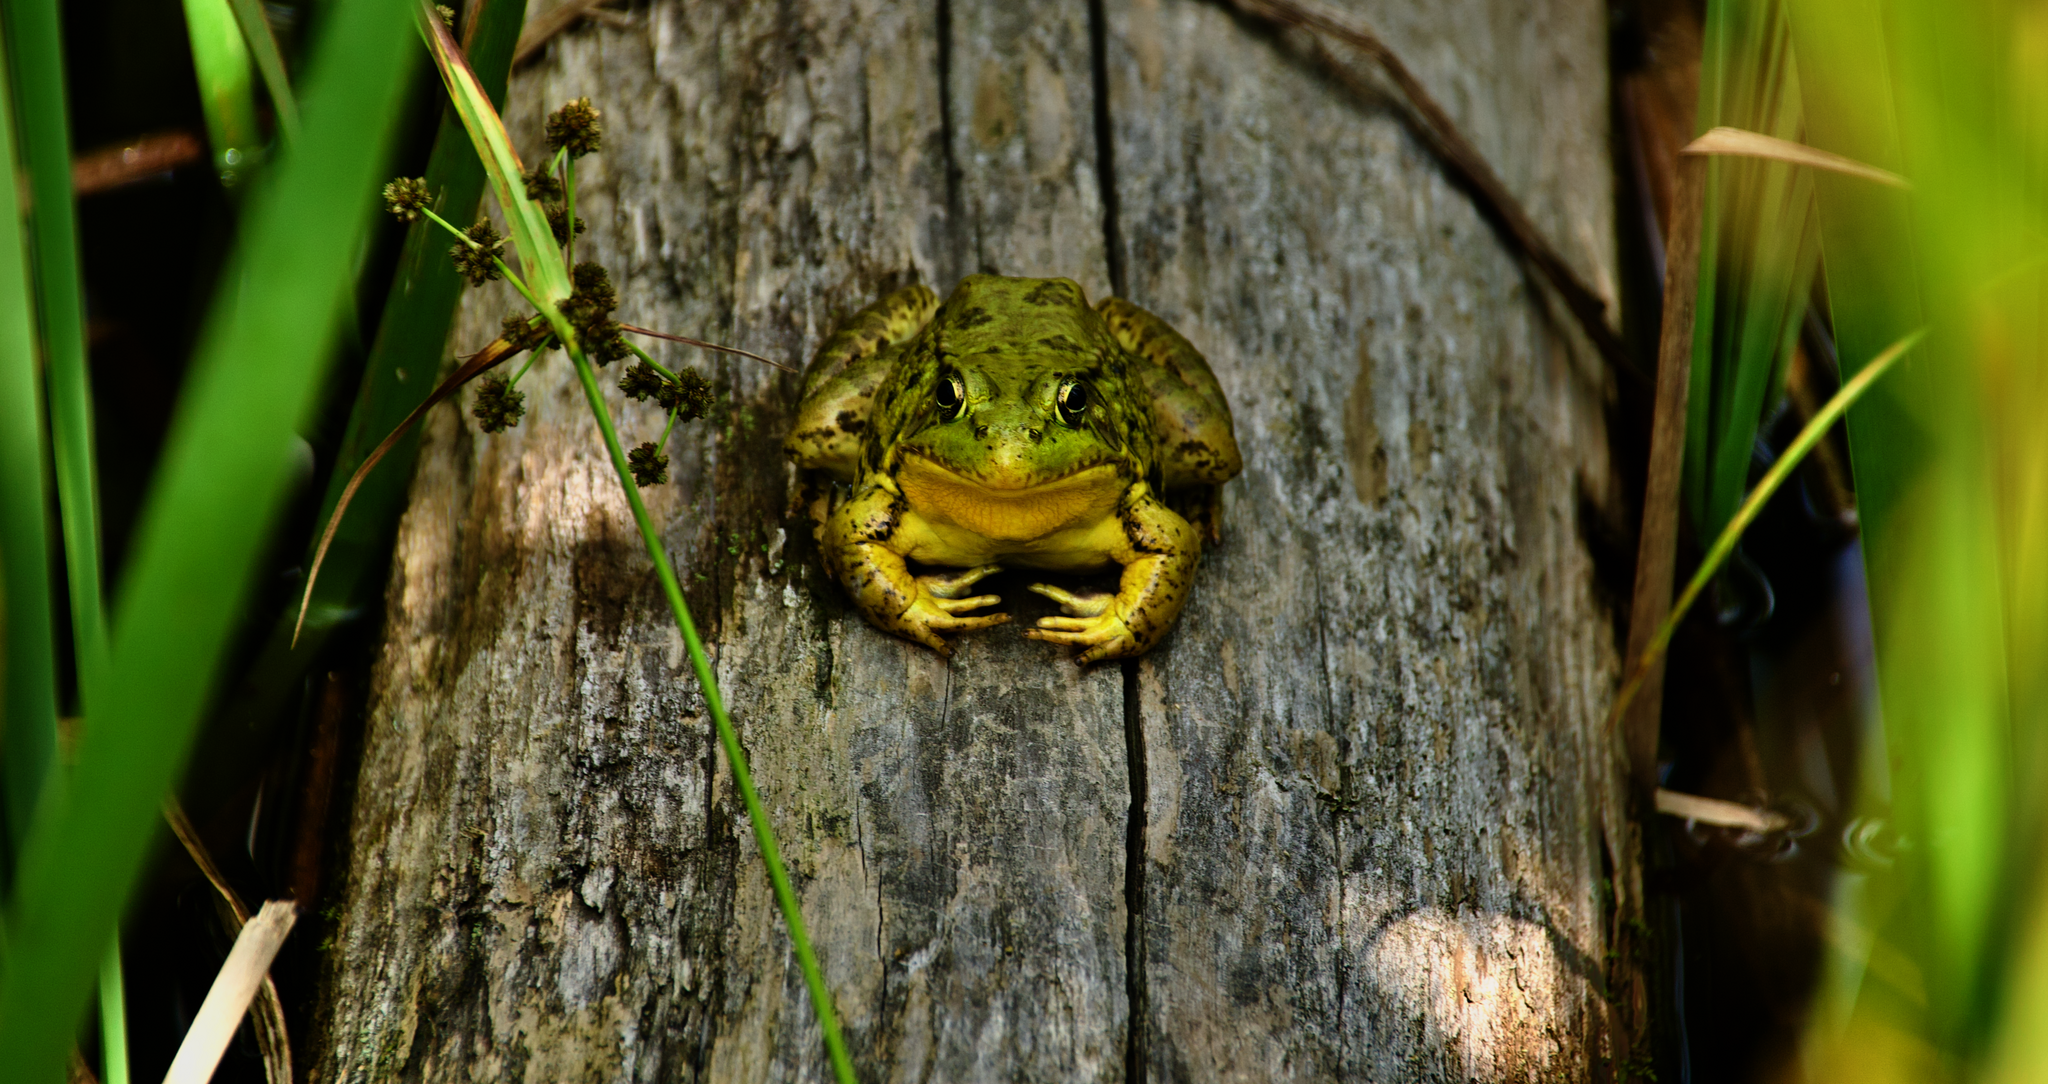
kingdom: Animalia
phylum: Chordata
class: Amphibia
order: Anura
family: Ranidae
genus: Lithobates
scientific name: Lithobates clamitans
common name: Green frog
